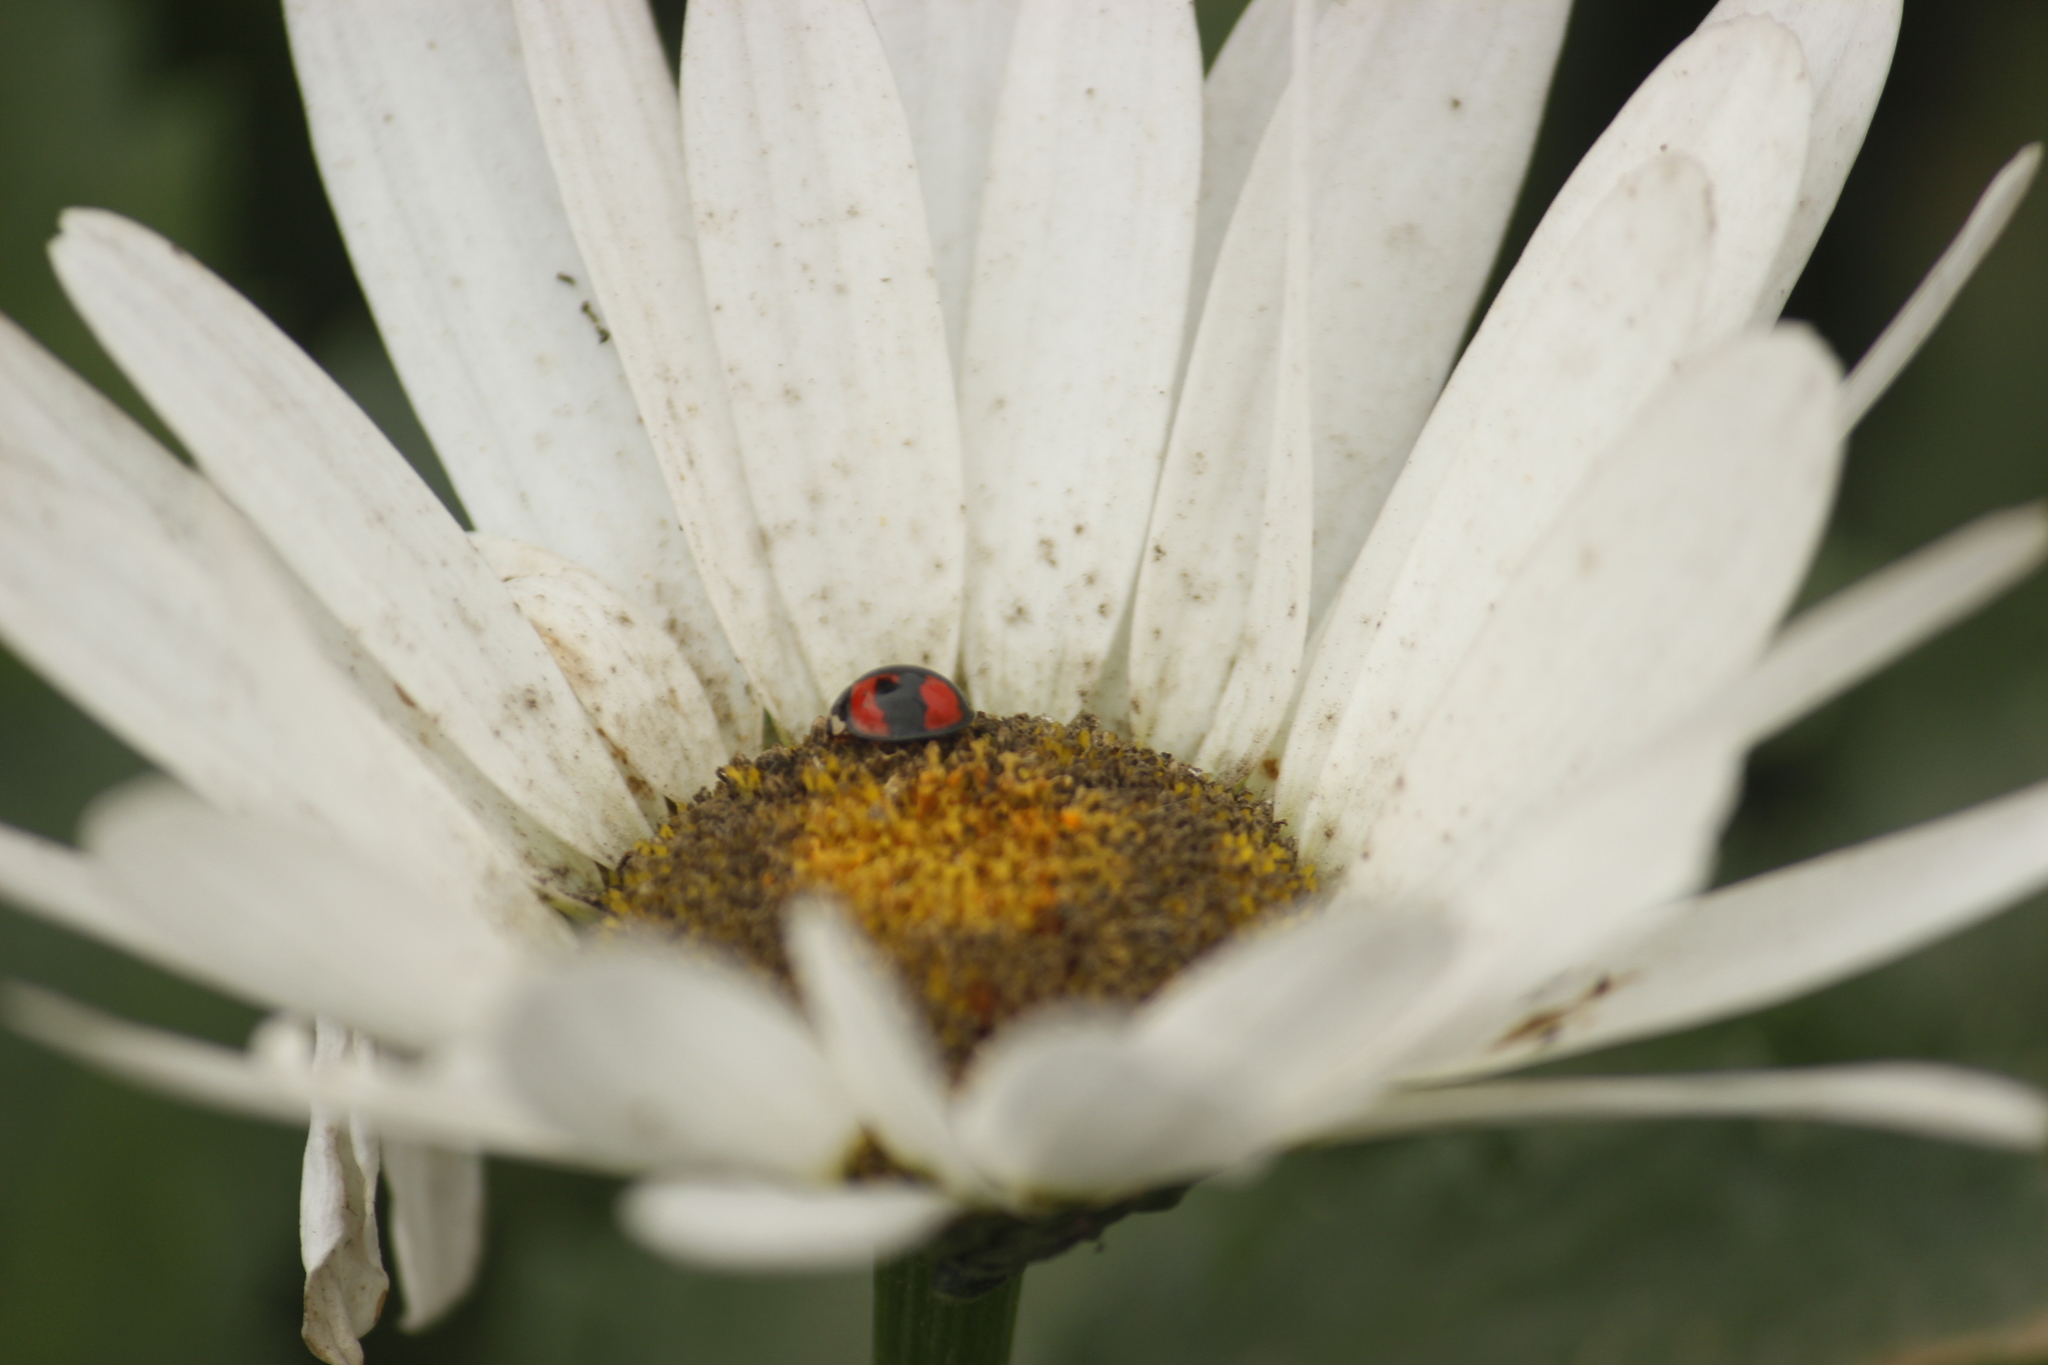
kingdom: Animalia
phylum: Arthropoda
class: Insecta
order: Coleoptera
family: Coccinellidae
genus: Cheilomenes
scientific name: Cheilomenes sexmaculata
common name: Ladybird beetle
